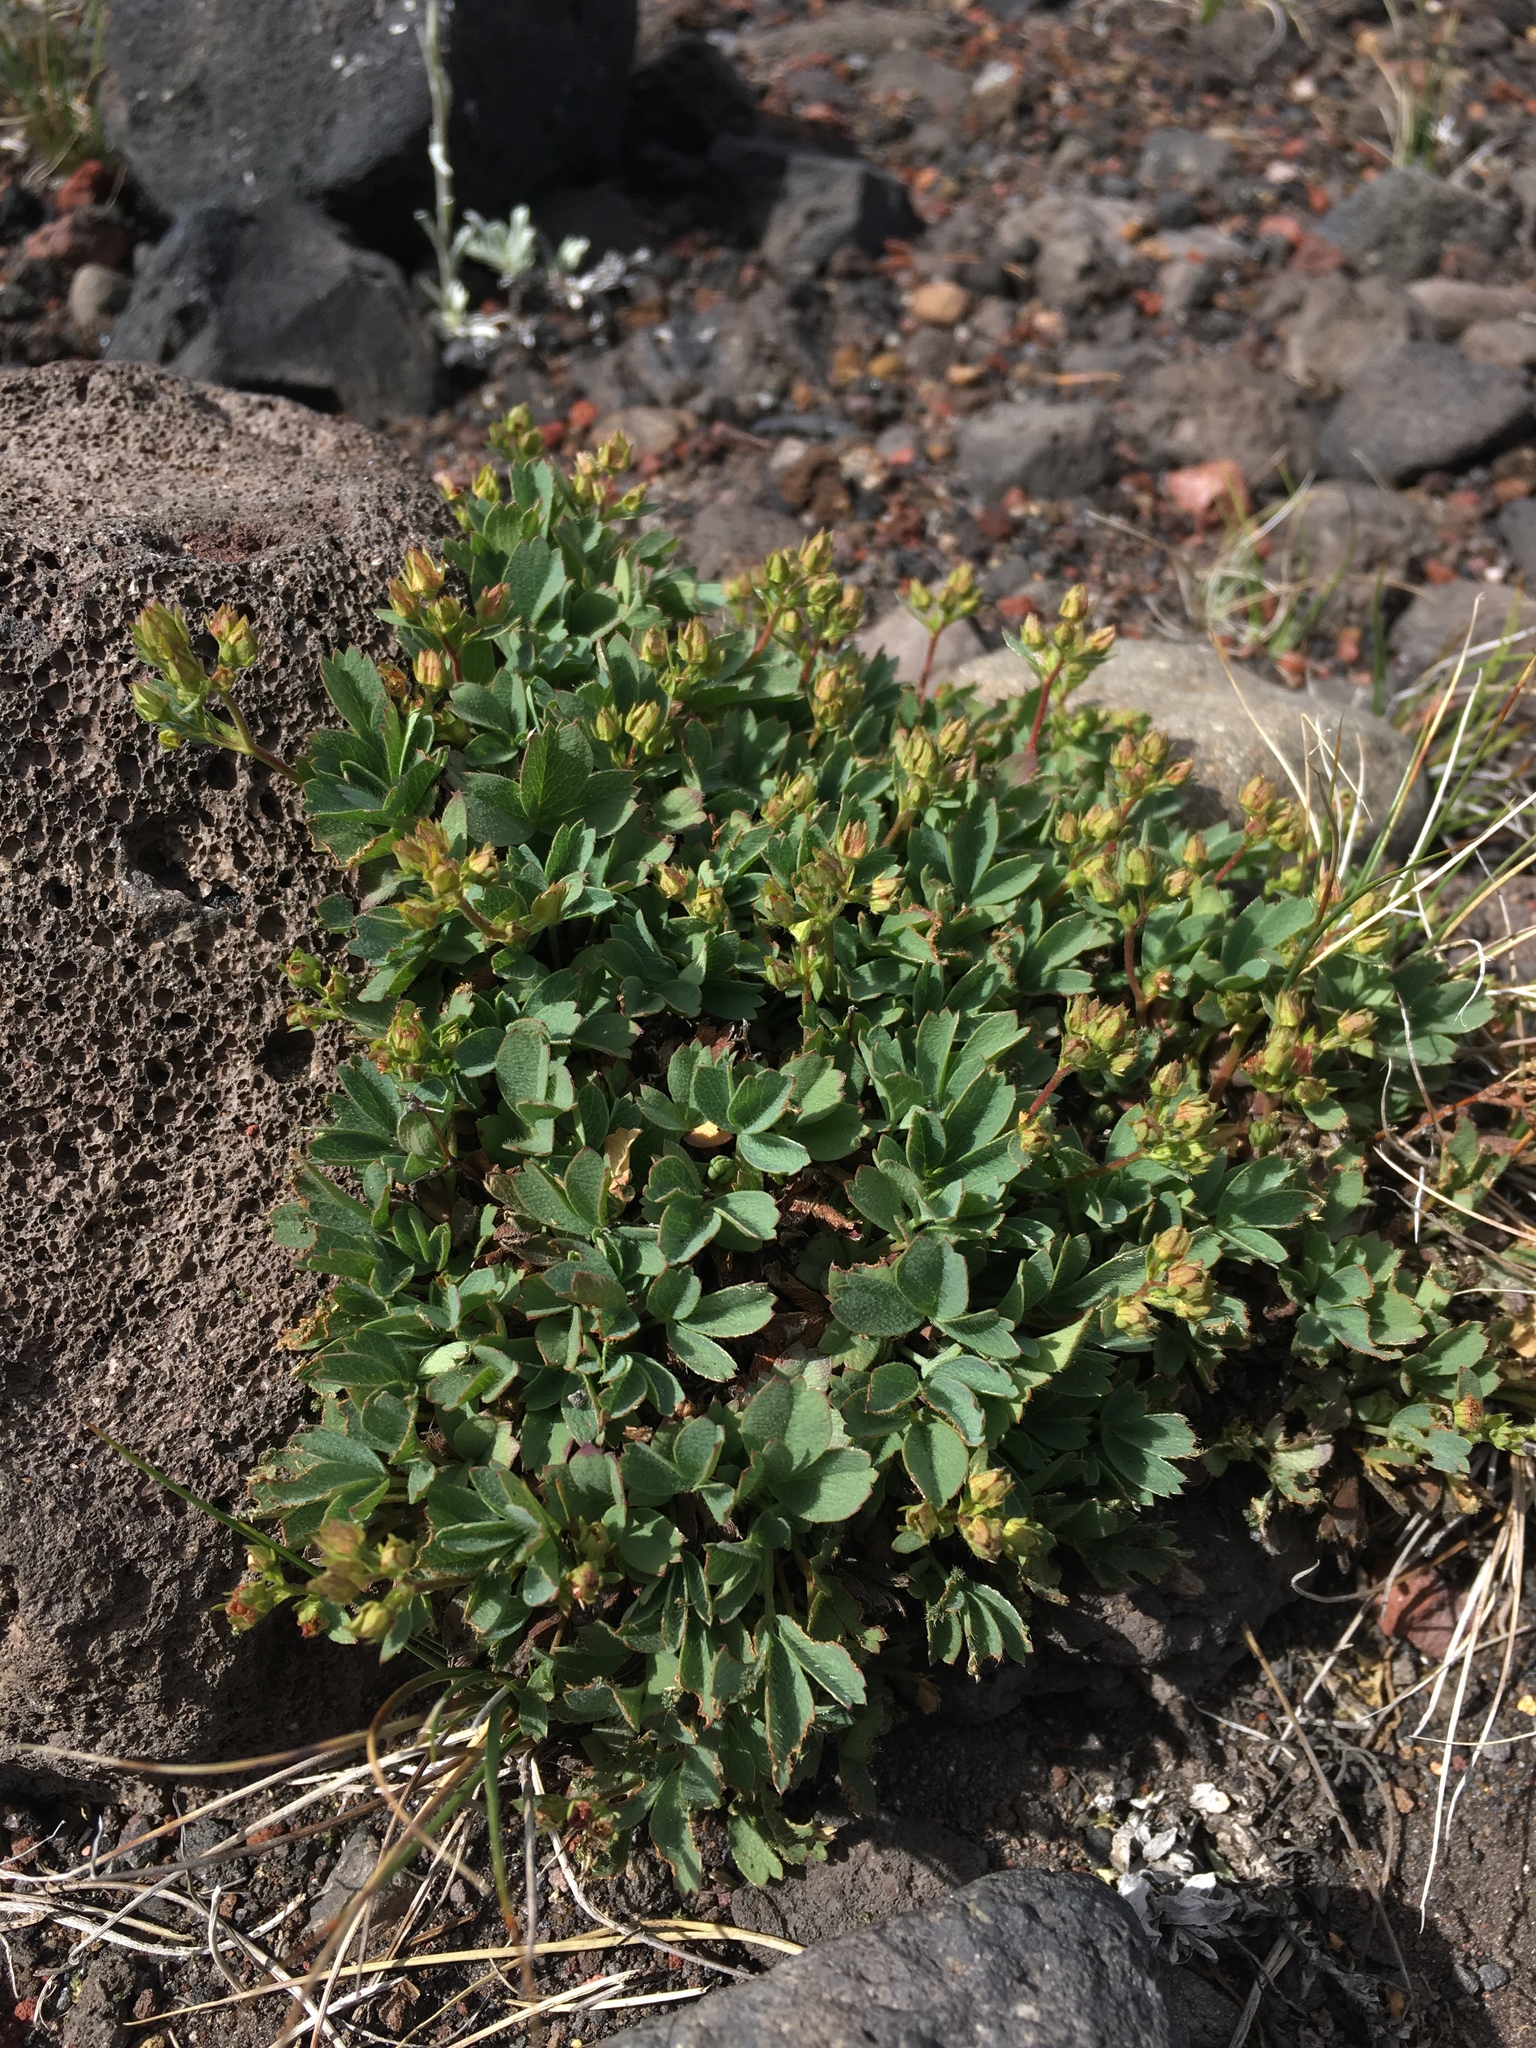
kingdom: Plantae
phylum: Tracheophyta
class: Magnoliopsida
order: Rosales
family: Rosaceae
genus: Sibbaldia
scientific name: Sibbaldia procumbens
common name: Creeping sibbaldia
